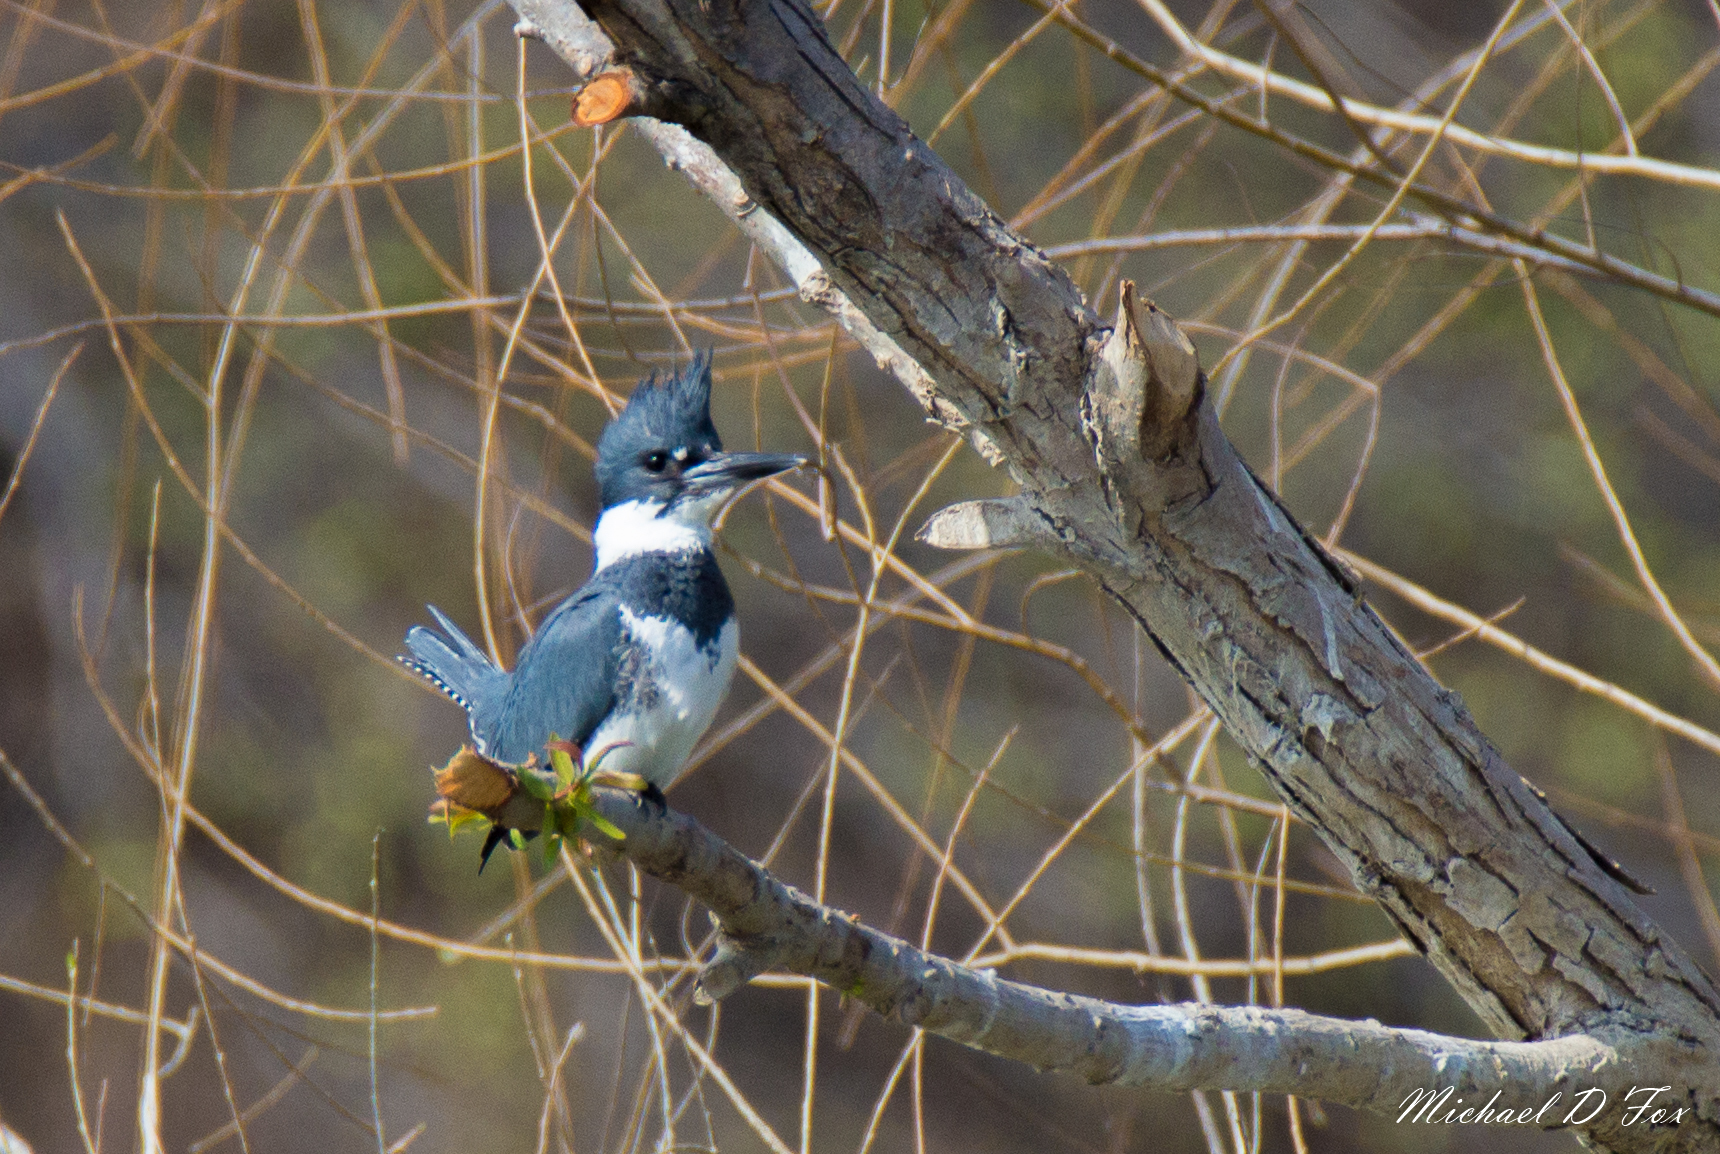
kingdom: Animalia
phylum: Chordata
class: Aves
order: Coraciiformes
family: Alcedinidae
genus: Megaceryle
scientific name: Megaceryle alcyon
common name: Belted kingfisher
